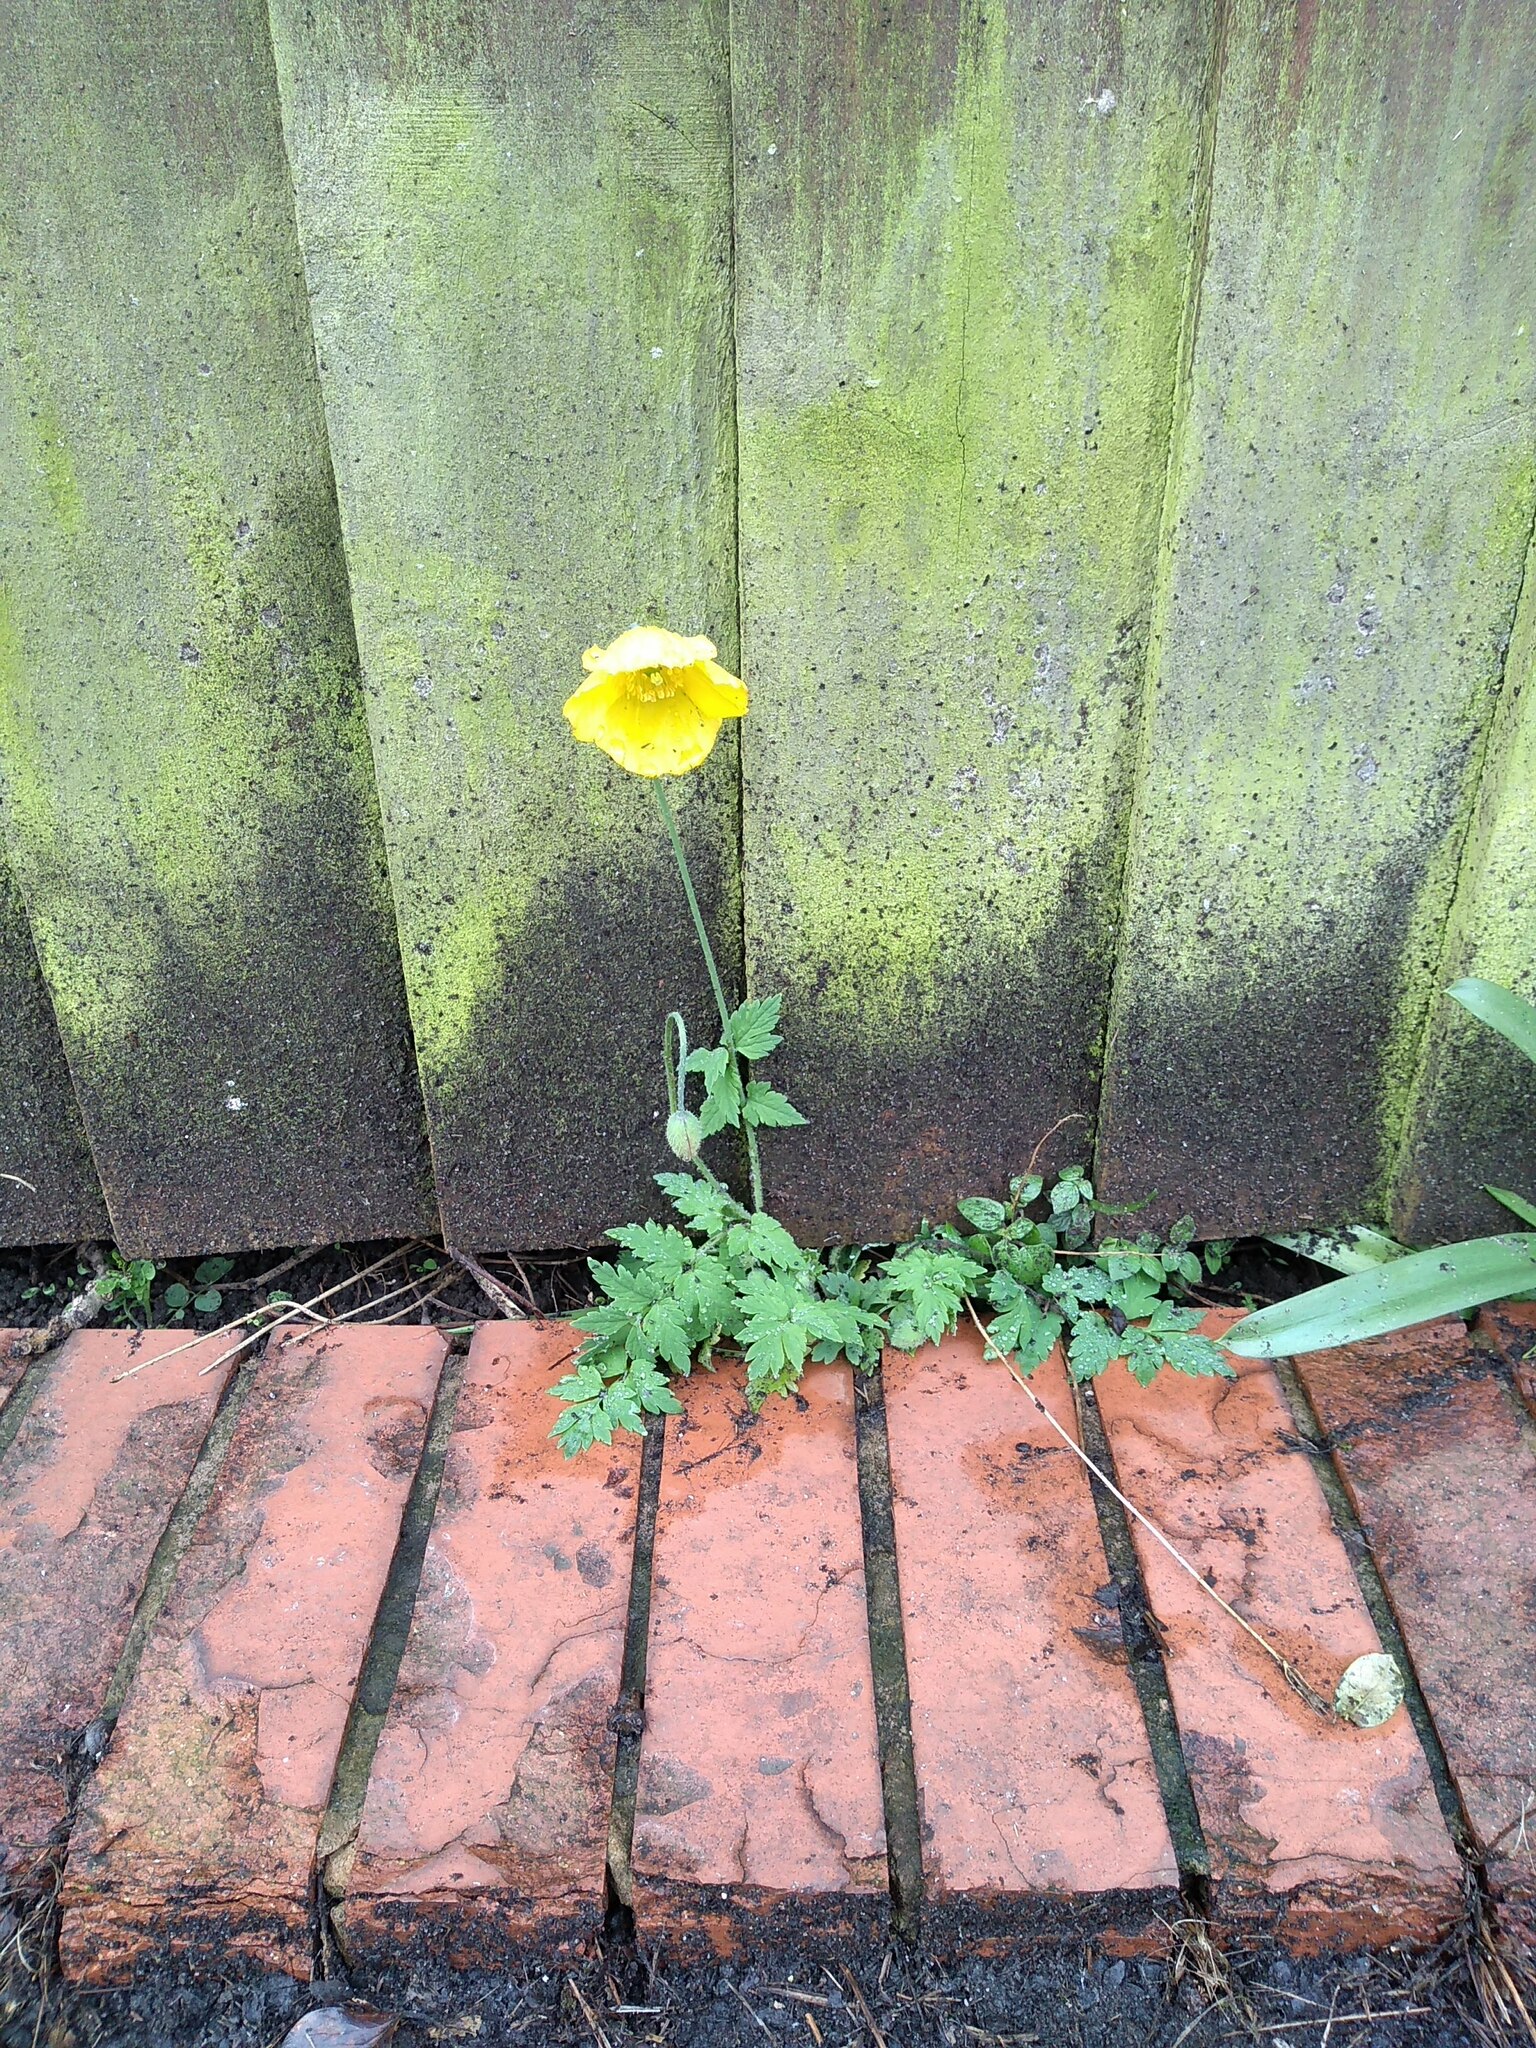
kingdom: Plantae
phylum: Tracheophyta
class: Magnoliopsida
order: Ranunculales
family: Papaveraceae
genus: Papaver
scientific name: Papaver cambricum
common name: Poppy
